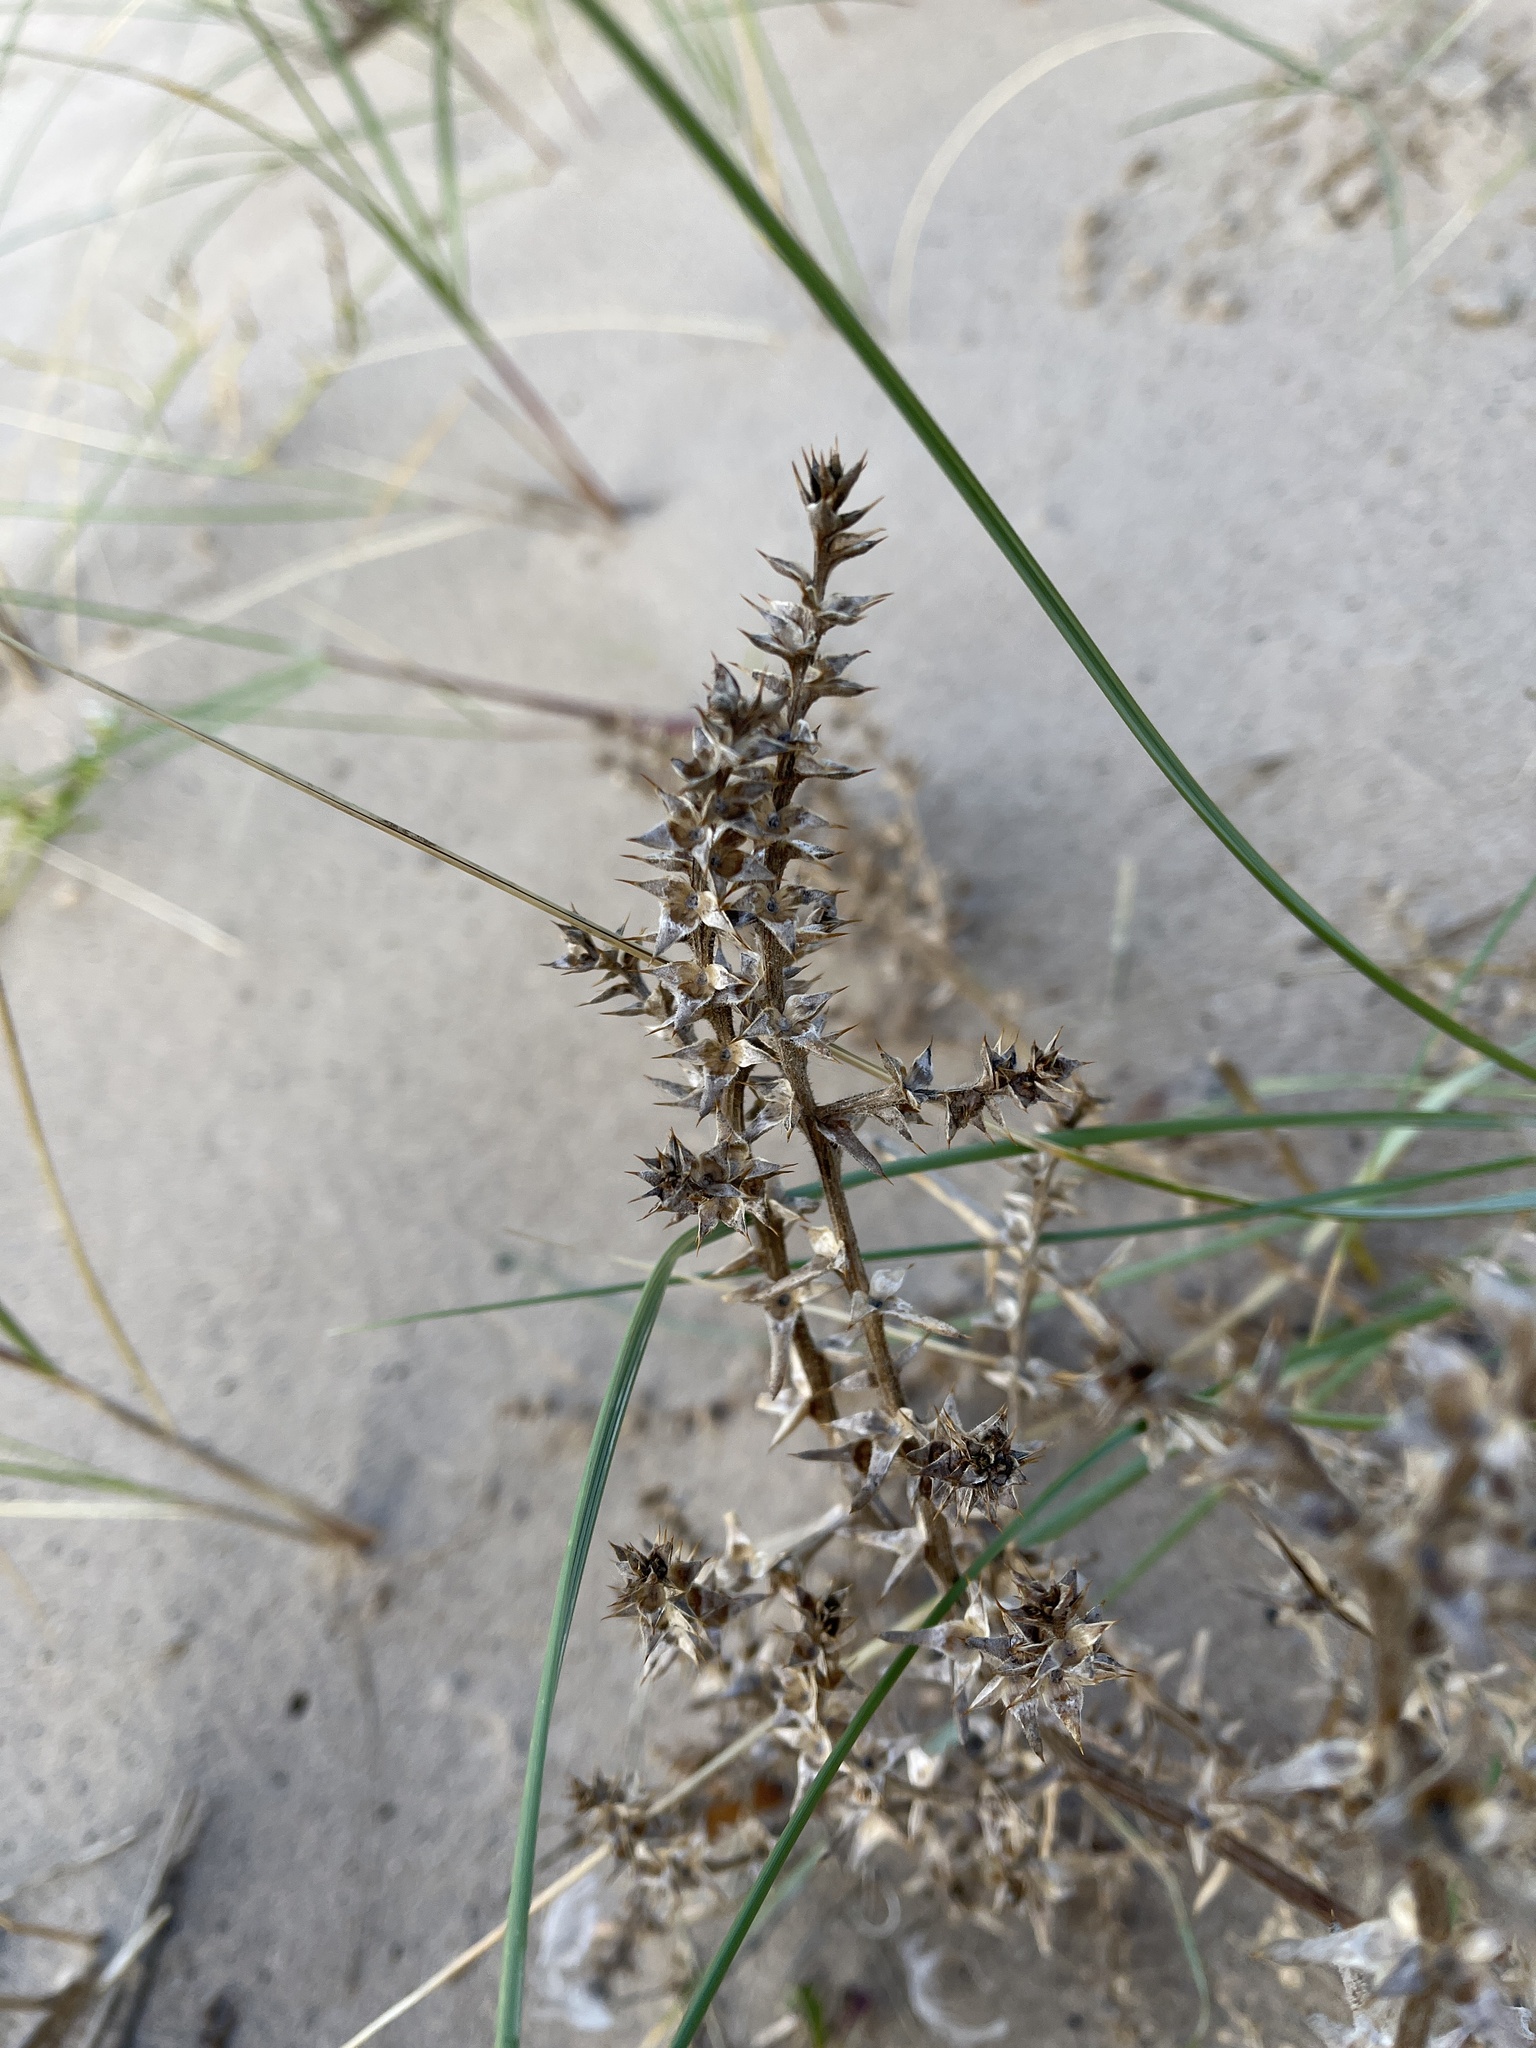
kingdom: Plantae
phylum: Tracheophyta
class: Magnoliopsida
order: Caryophyllales
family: Amaranthaceae
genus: Salsola
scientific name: Salsola kali
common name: Saltwort
